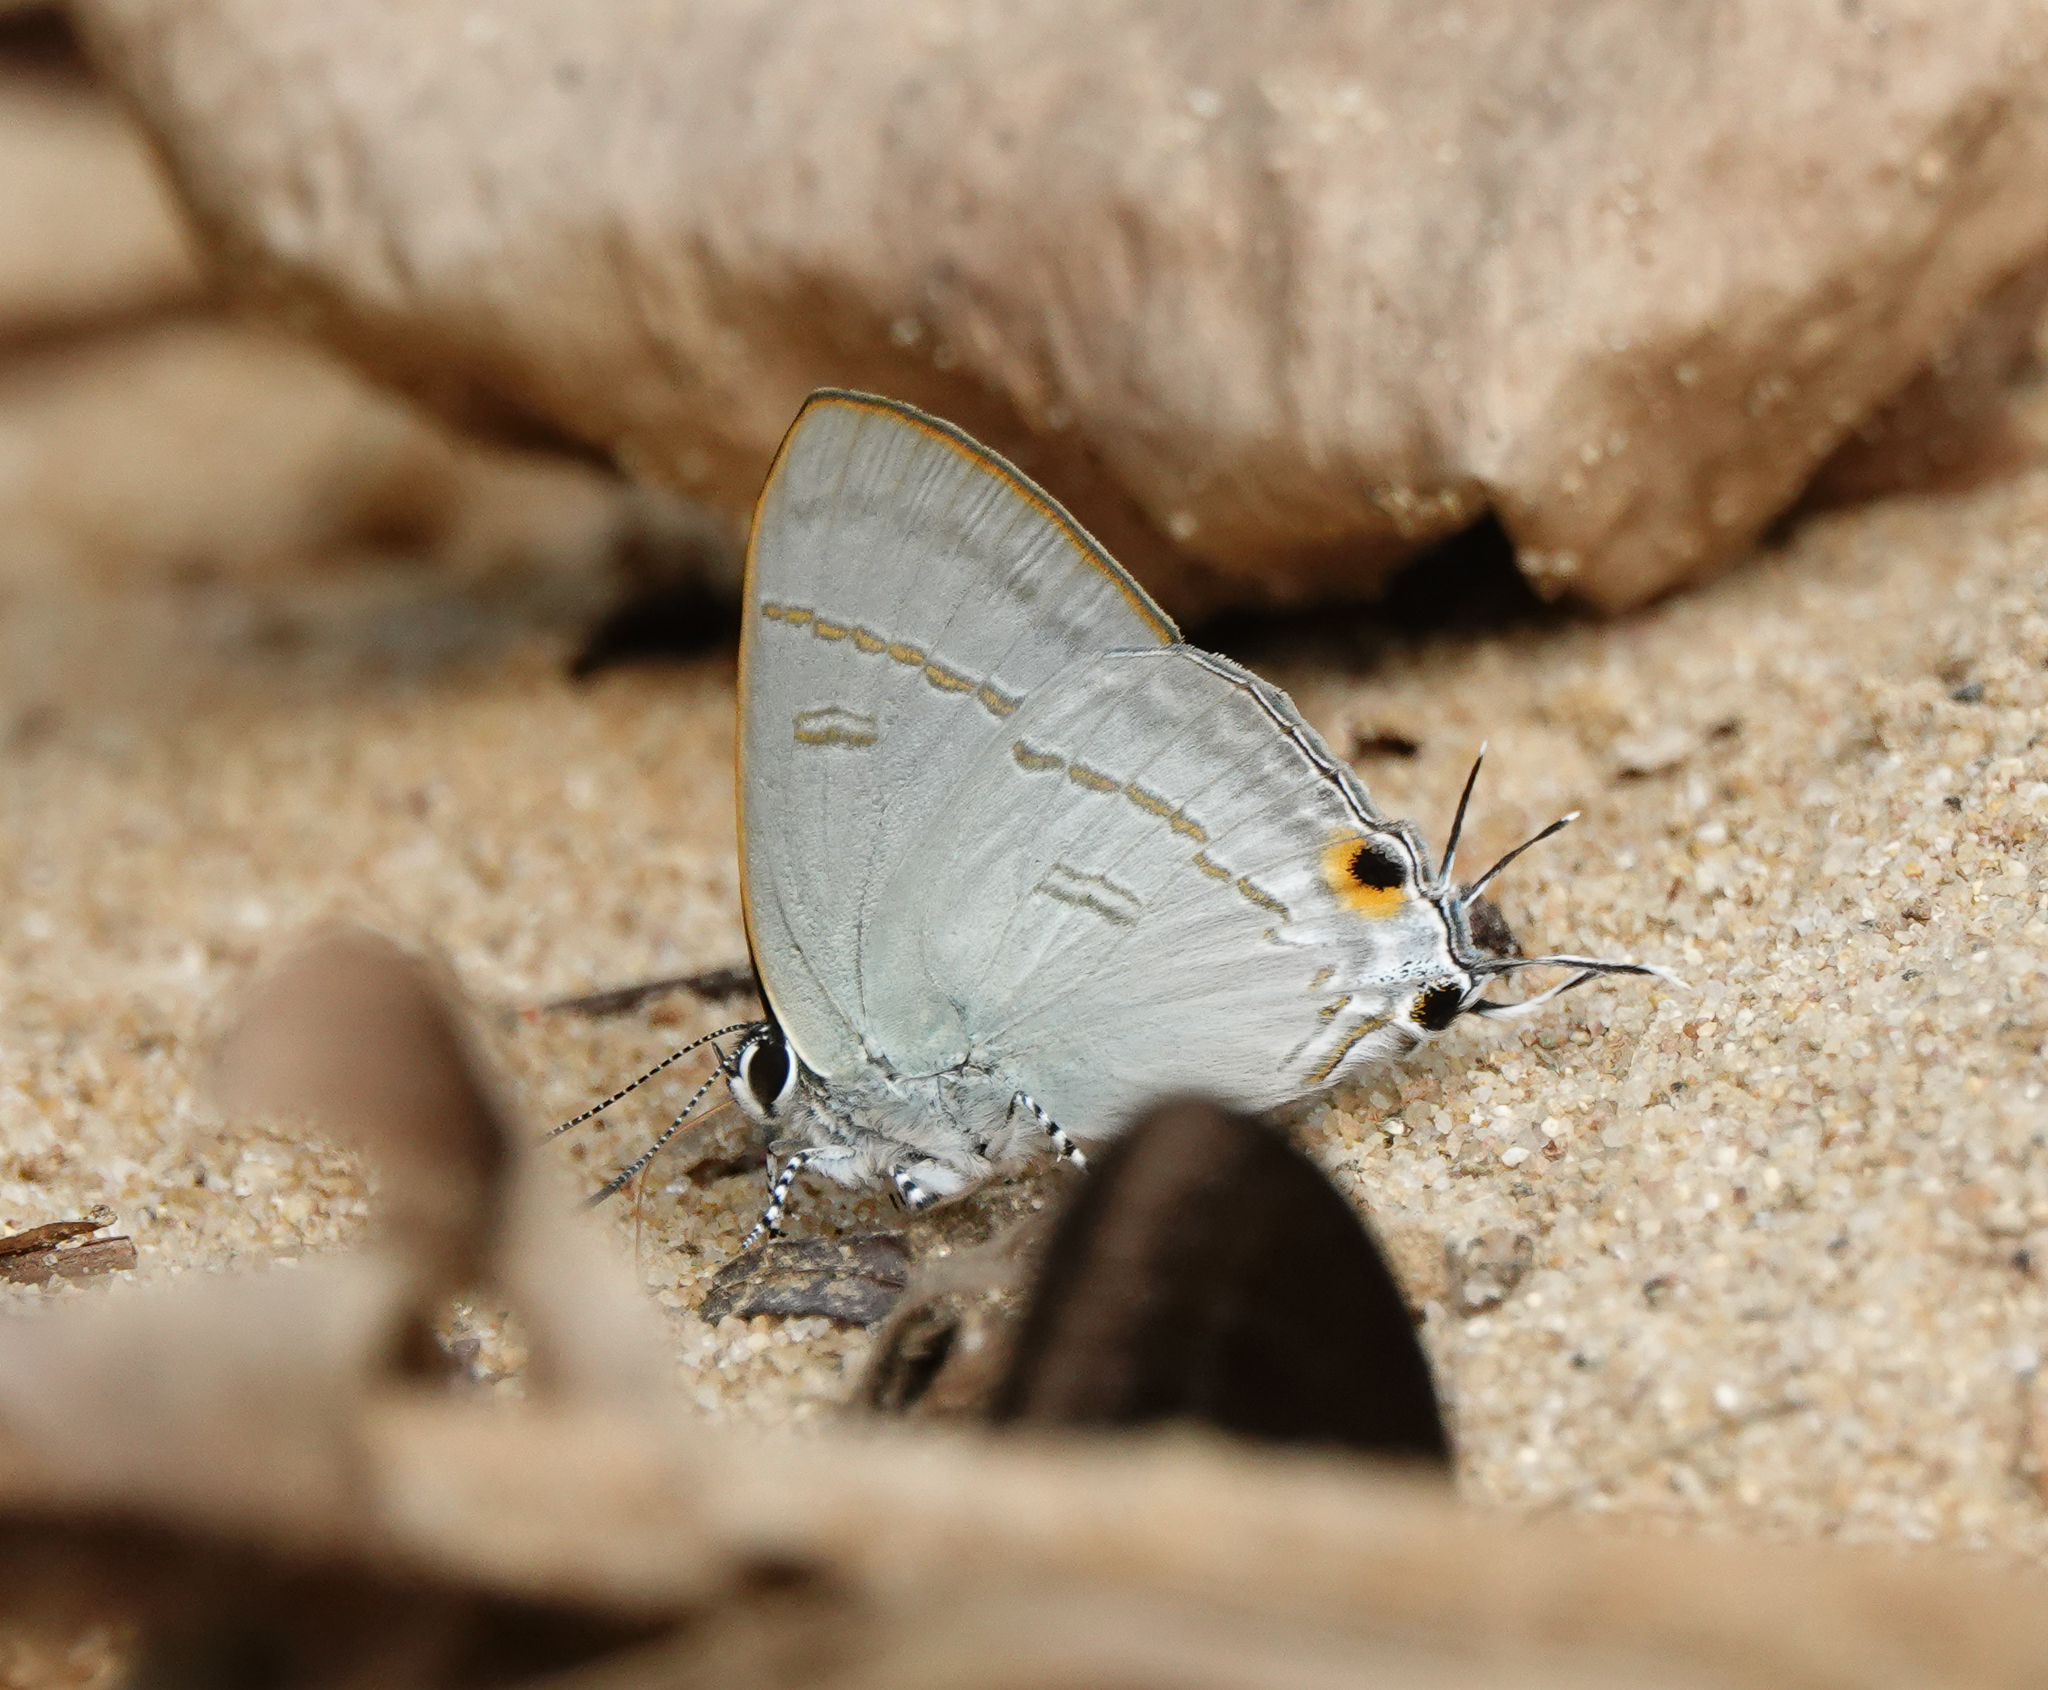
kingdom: Animalia
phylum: Arthropoda
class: Insecta
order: Lepidoptera
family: Lycaenidae
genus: Hypolycaena
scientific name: Hypolycaena erylus
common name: Common tit
